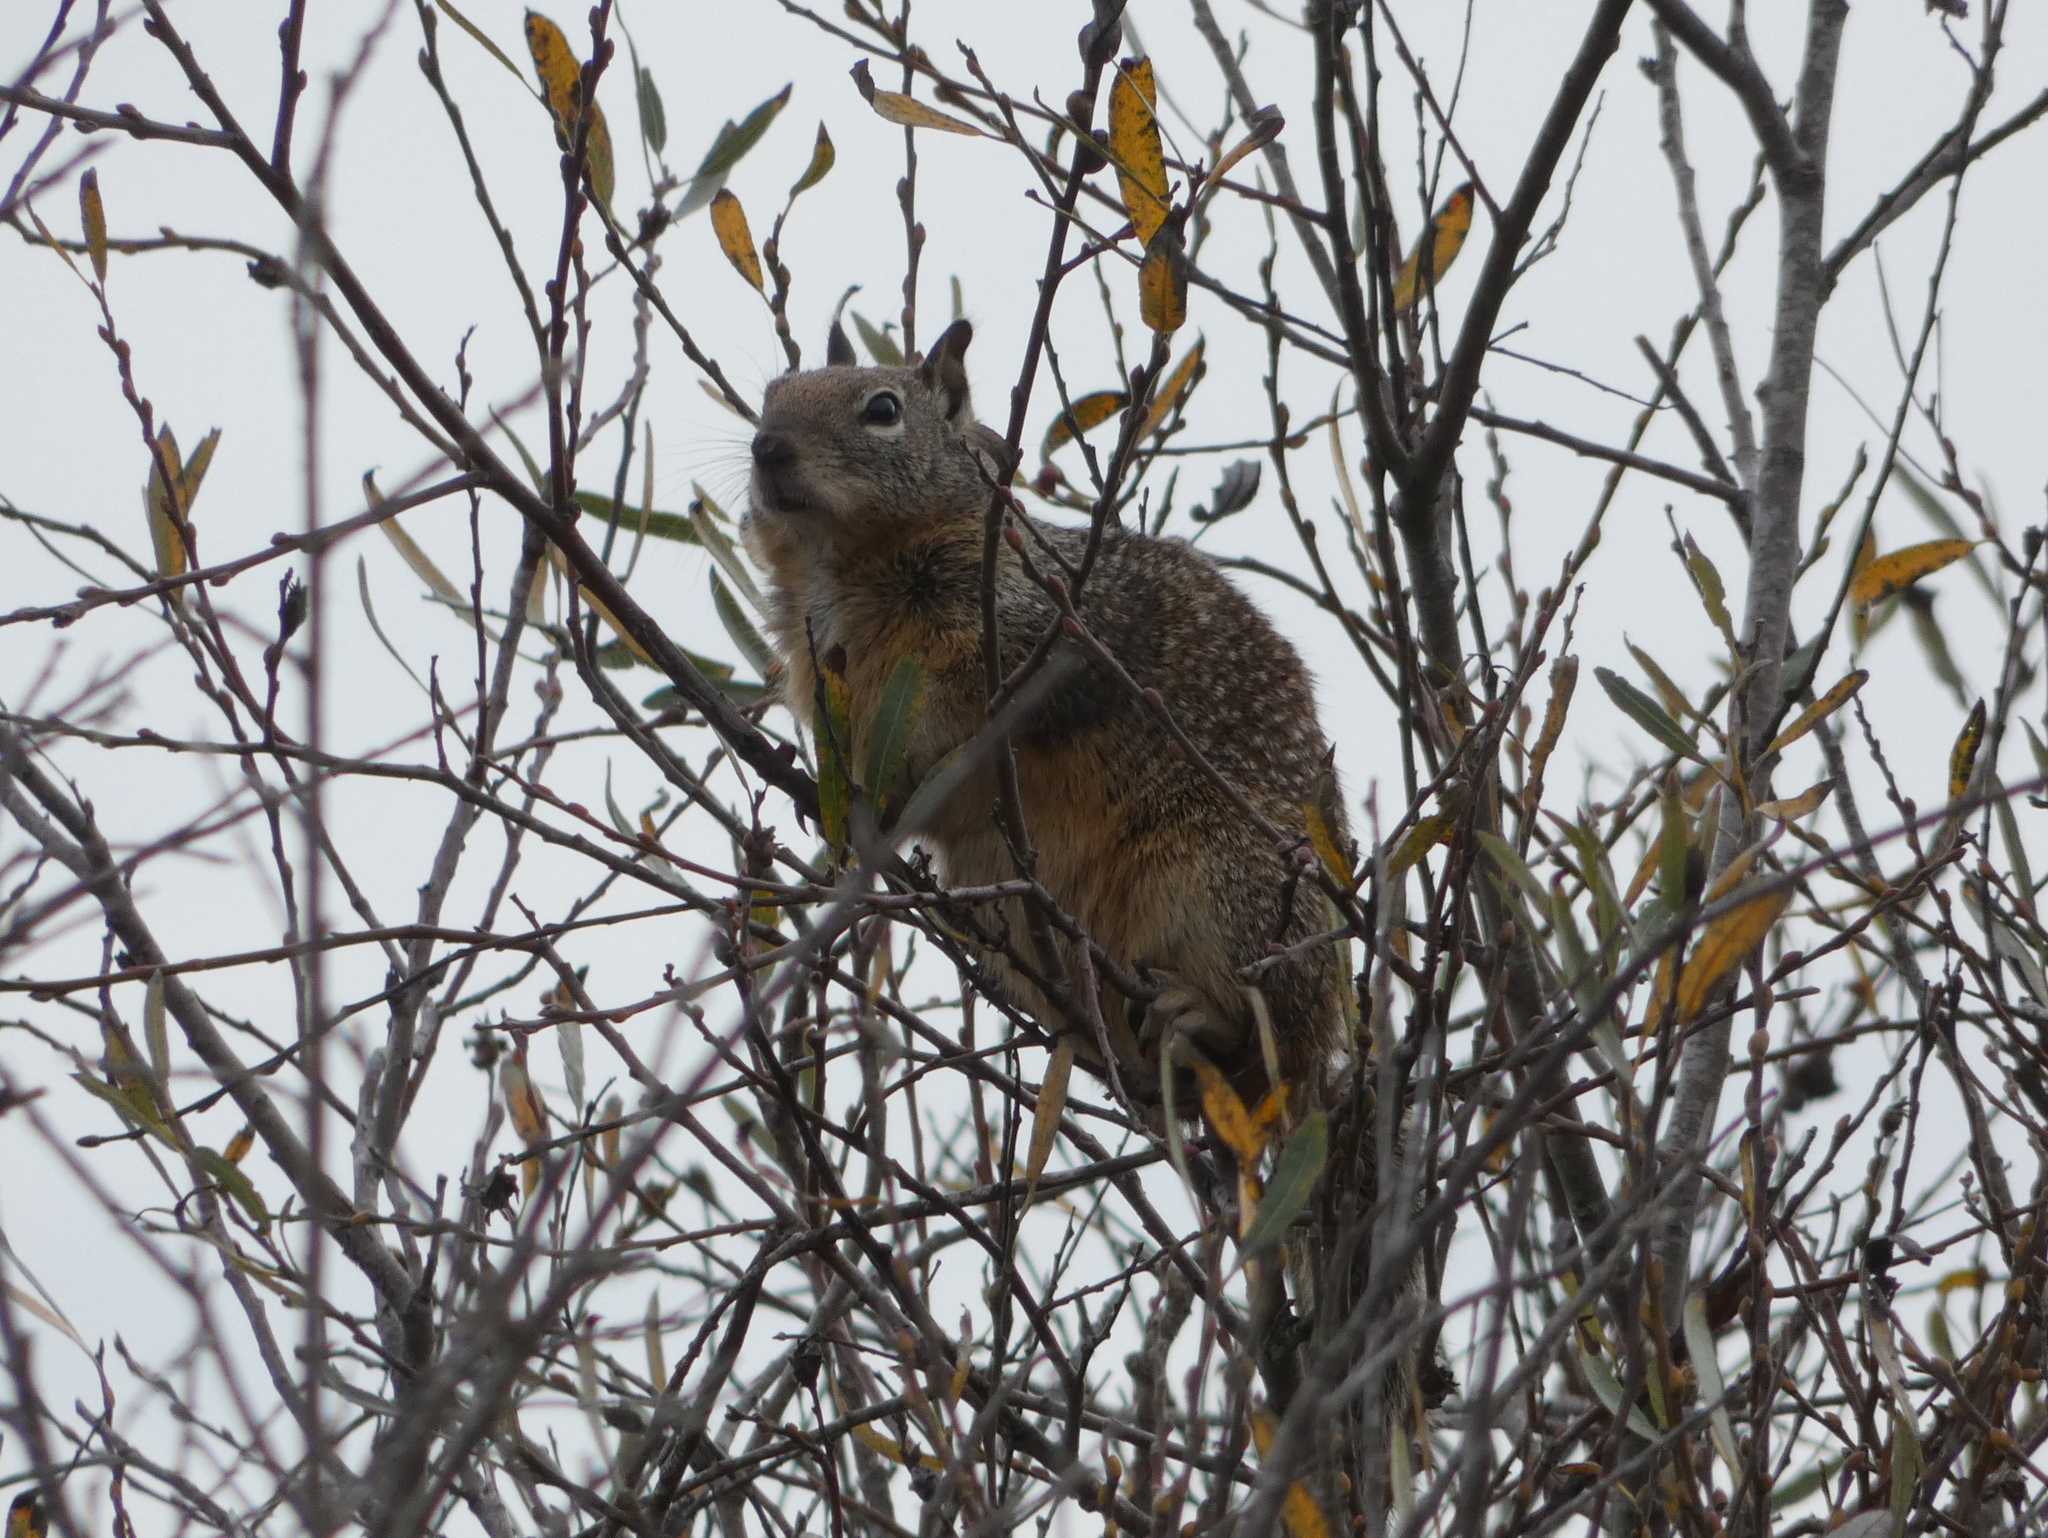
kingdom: Animalia
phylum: Chordata
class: Mammalia
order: Rodentia
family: Sciuridae
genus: Otospermophilus
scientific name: Otospermophilus beecheyi
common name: California ground squirrel
